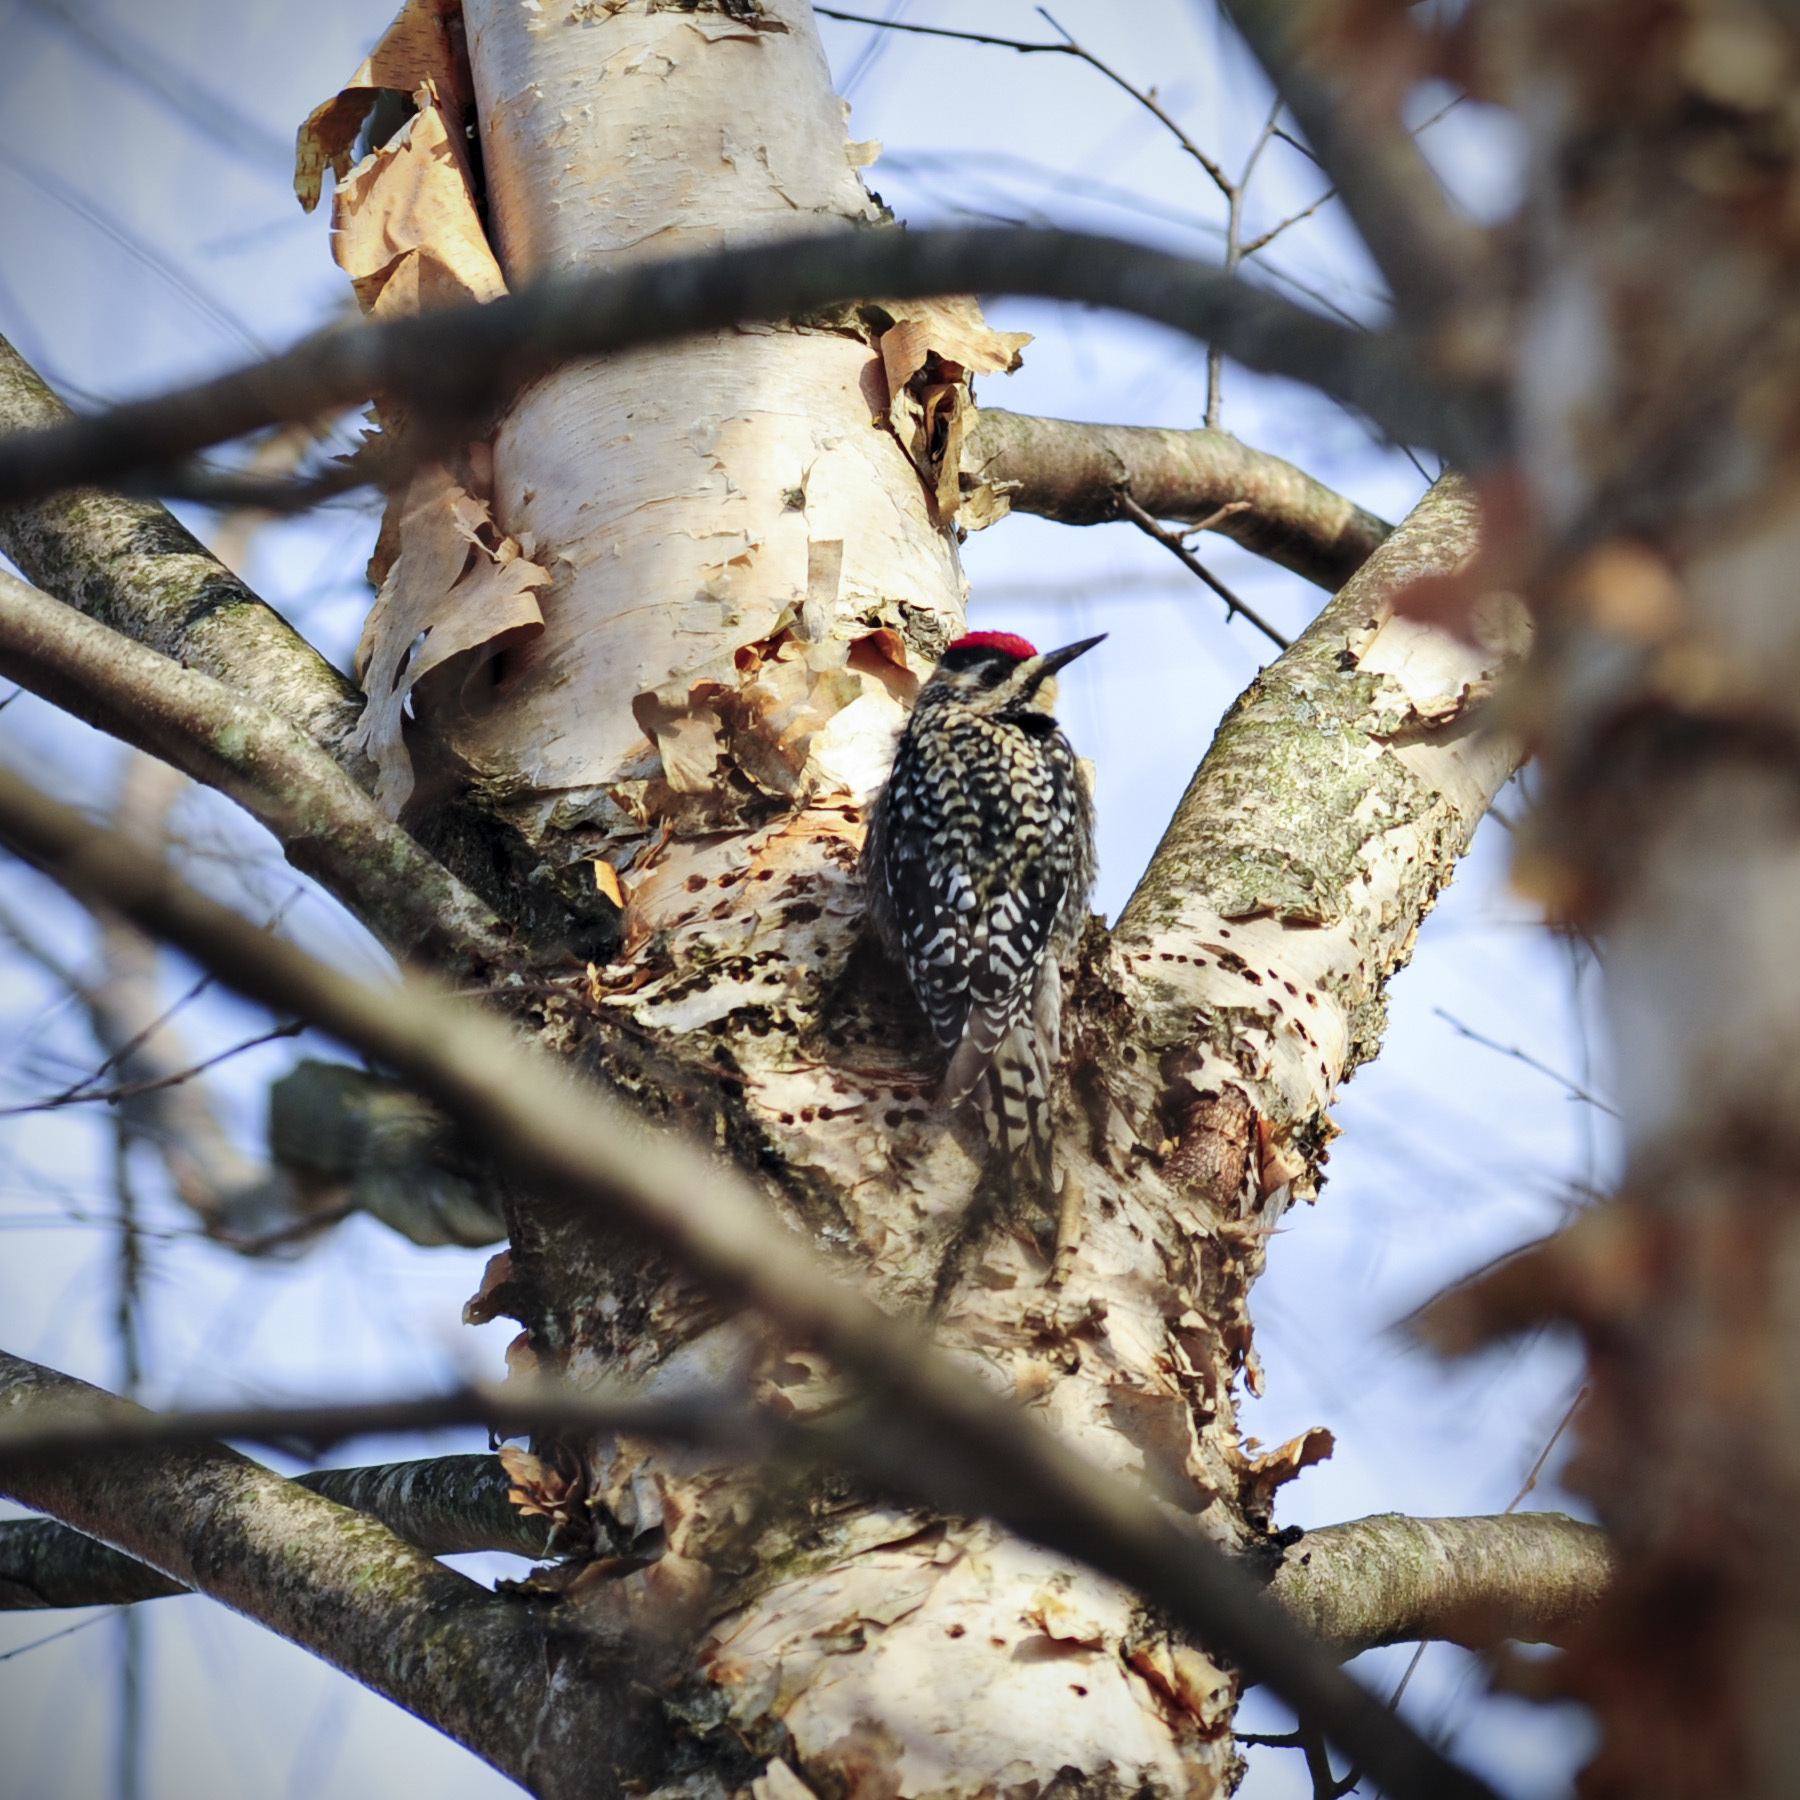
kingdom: Animalia
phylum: Chordata
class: Aves
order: Piciformes
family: Picidae
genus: Sphyrapicus
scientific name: Sphyrapicus varius
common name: Yellow-bellied sapsucker
